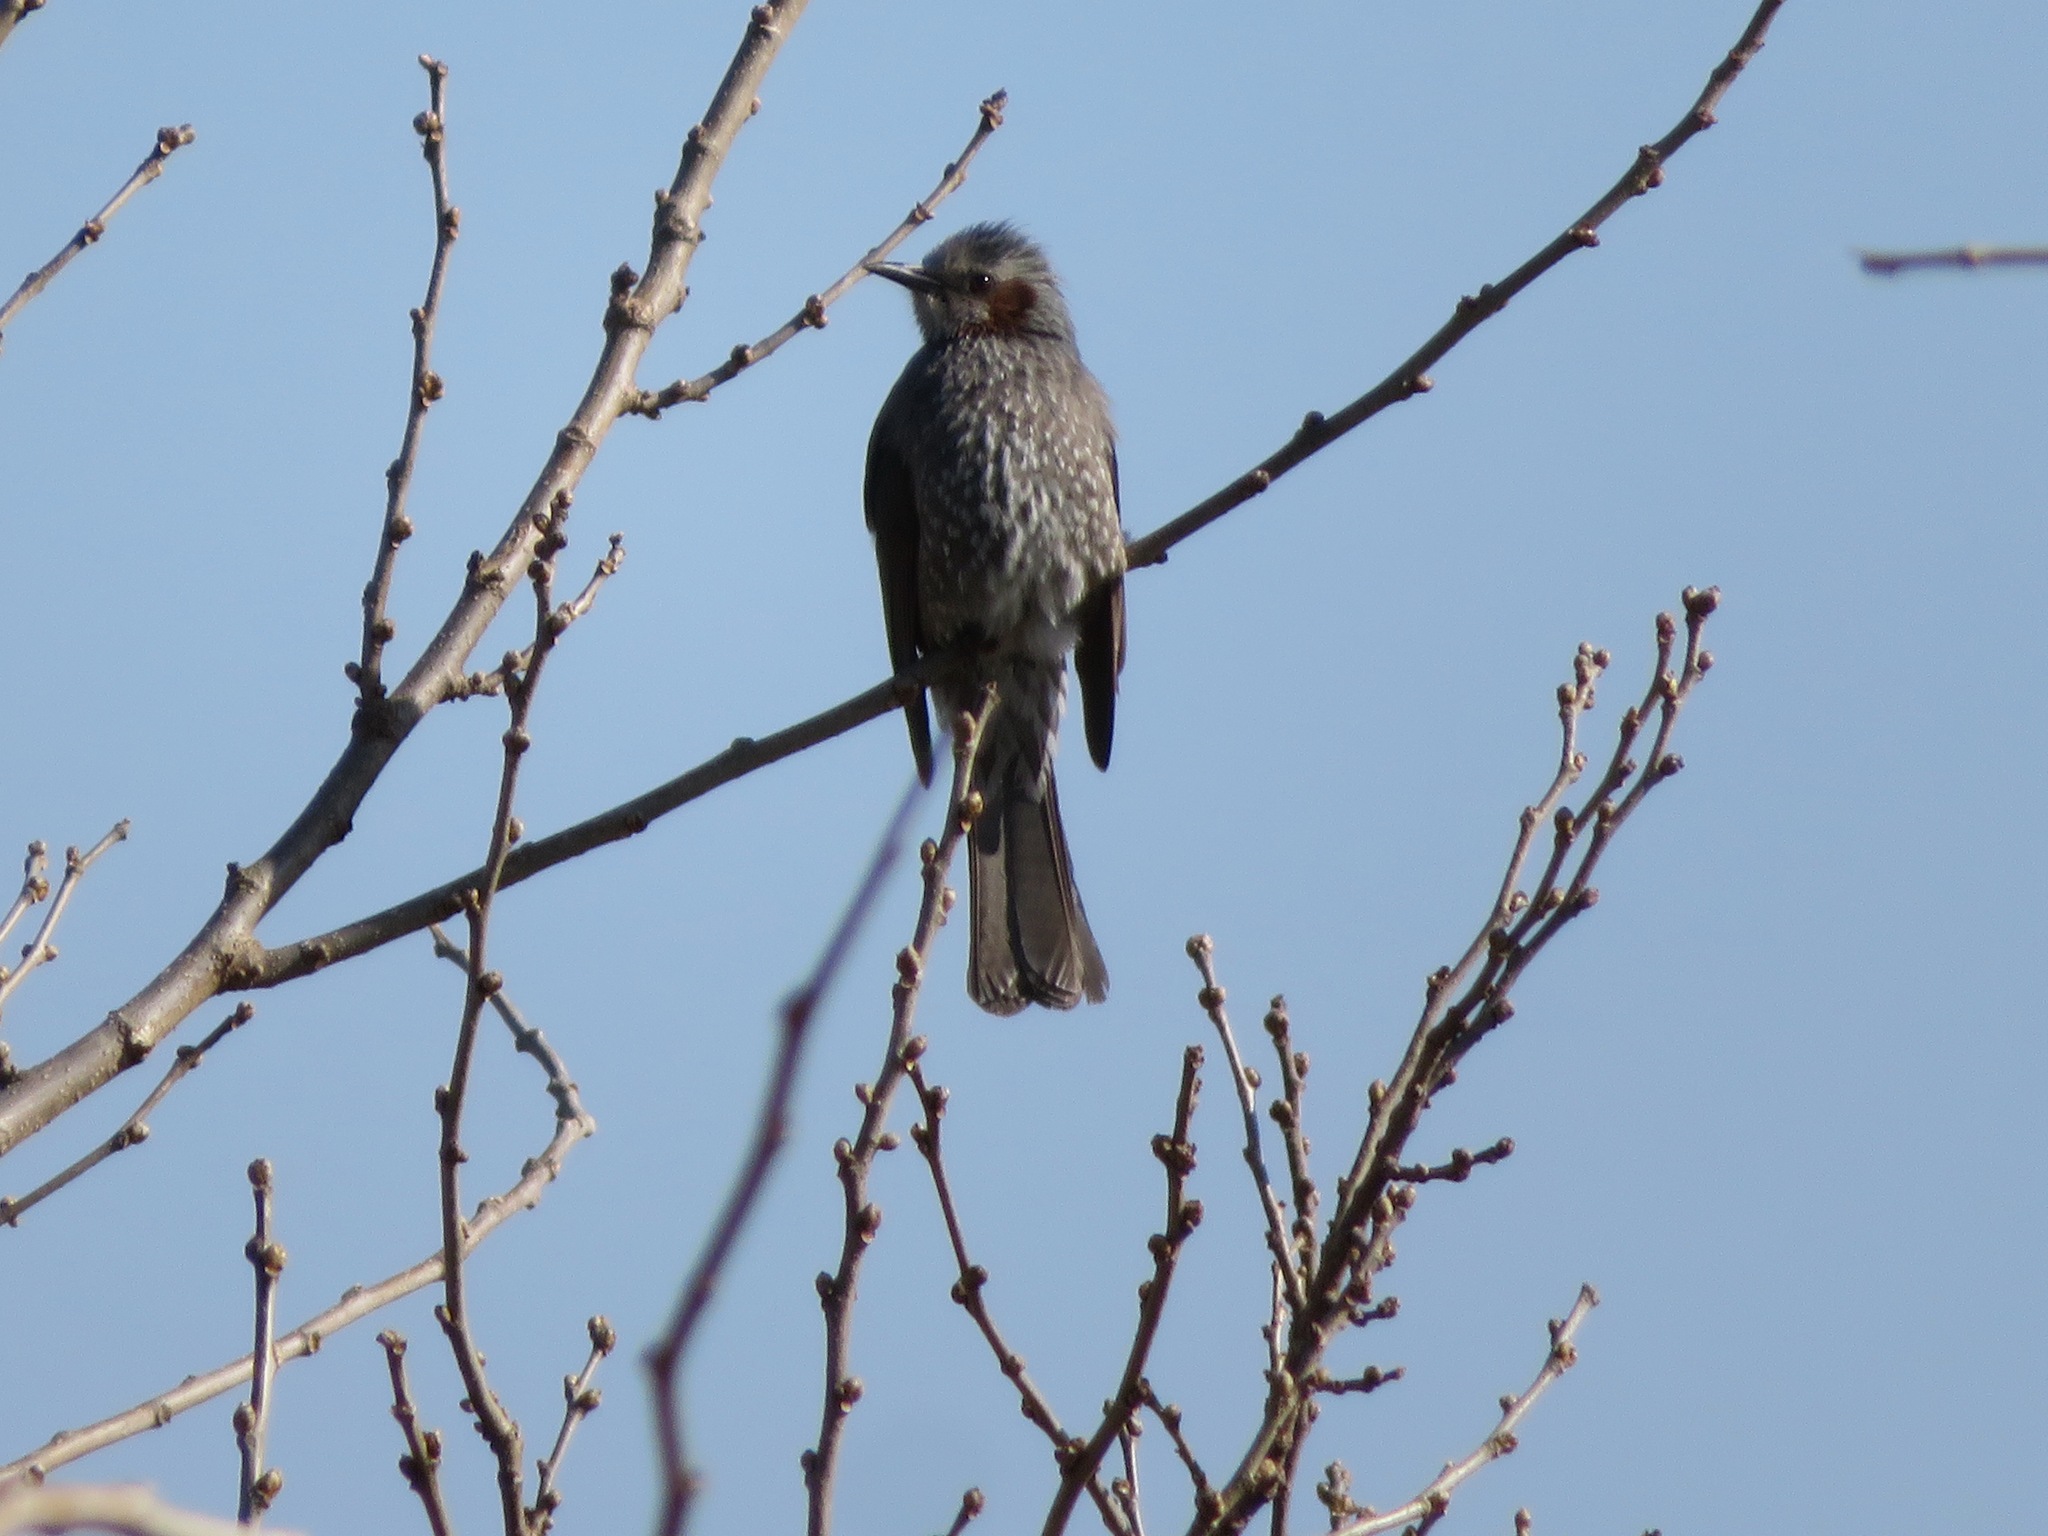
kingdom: Animalia
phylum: Chordata
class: Aves
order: Passeriformes
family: Pycnonotidae
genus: Hypsipetes
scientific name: Hypsipetes amaurotis
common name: Brown-eared bulbul
